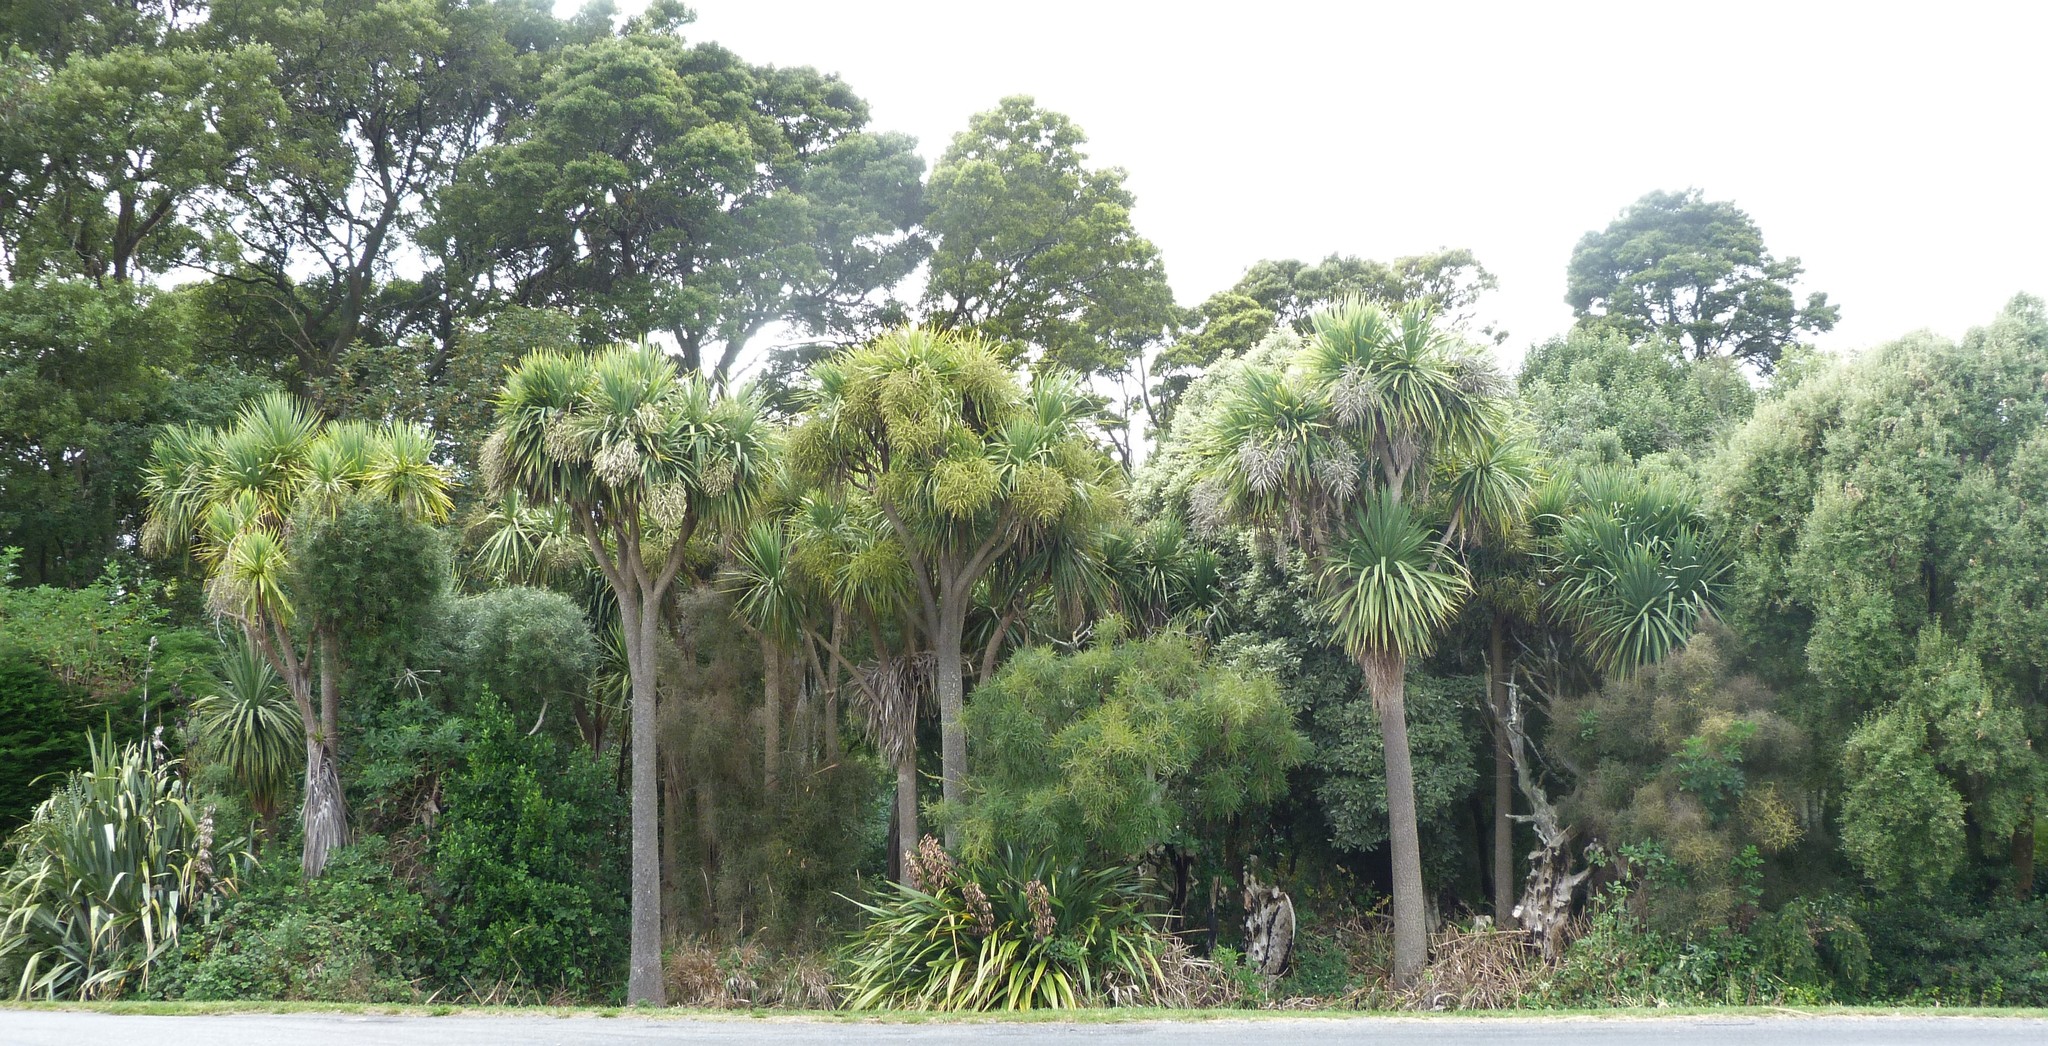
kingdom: Plantae
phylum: Tracheophyta
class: Liliopsida
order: Asparagales
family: Asparagaceae
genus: Cordyline
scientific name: Cordyline australis
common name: Cabbage-palm
